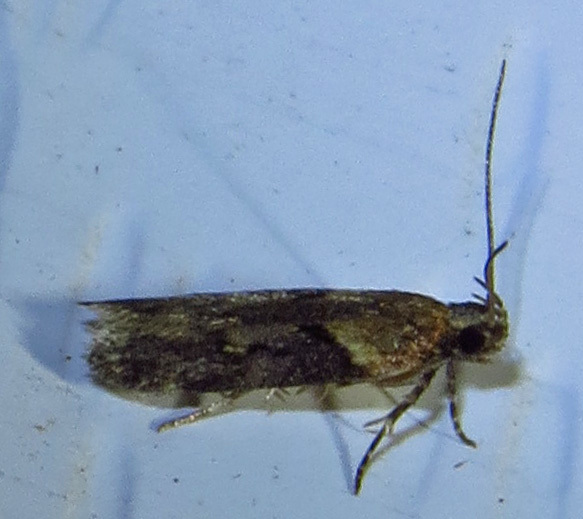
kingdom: Animalia
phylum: Arthropoda
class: Insecta
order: Lepidoptera
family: Gelechiidae
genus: Chionodes
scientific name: Chionodes mediofuscella
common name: Black-smudged chionodes moth
